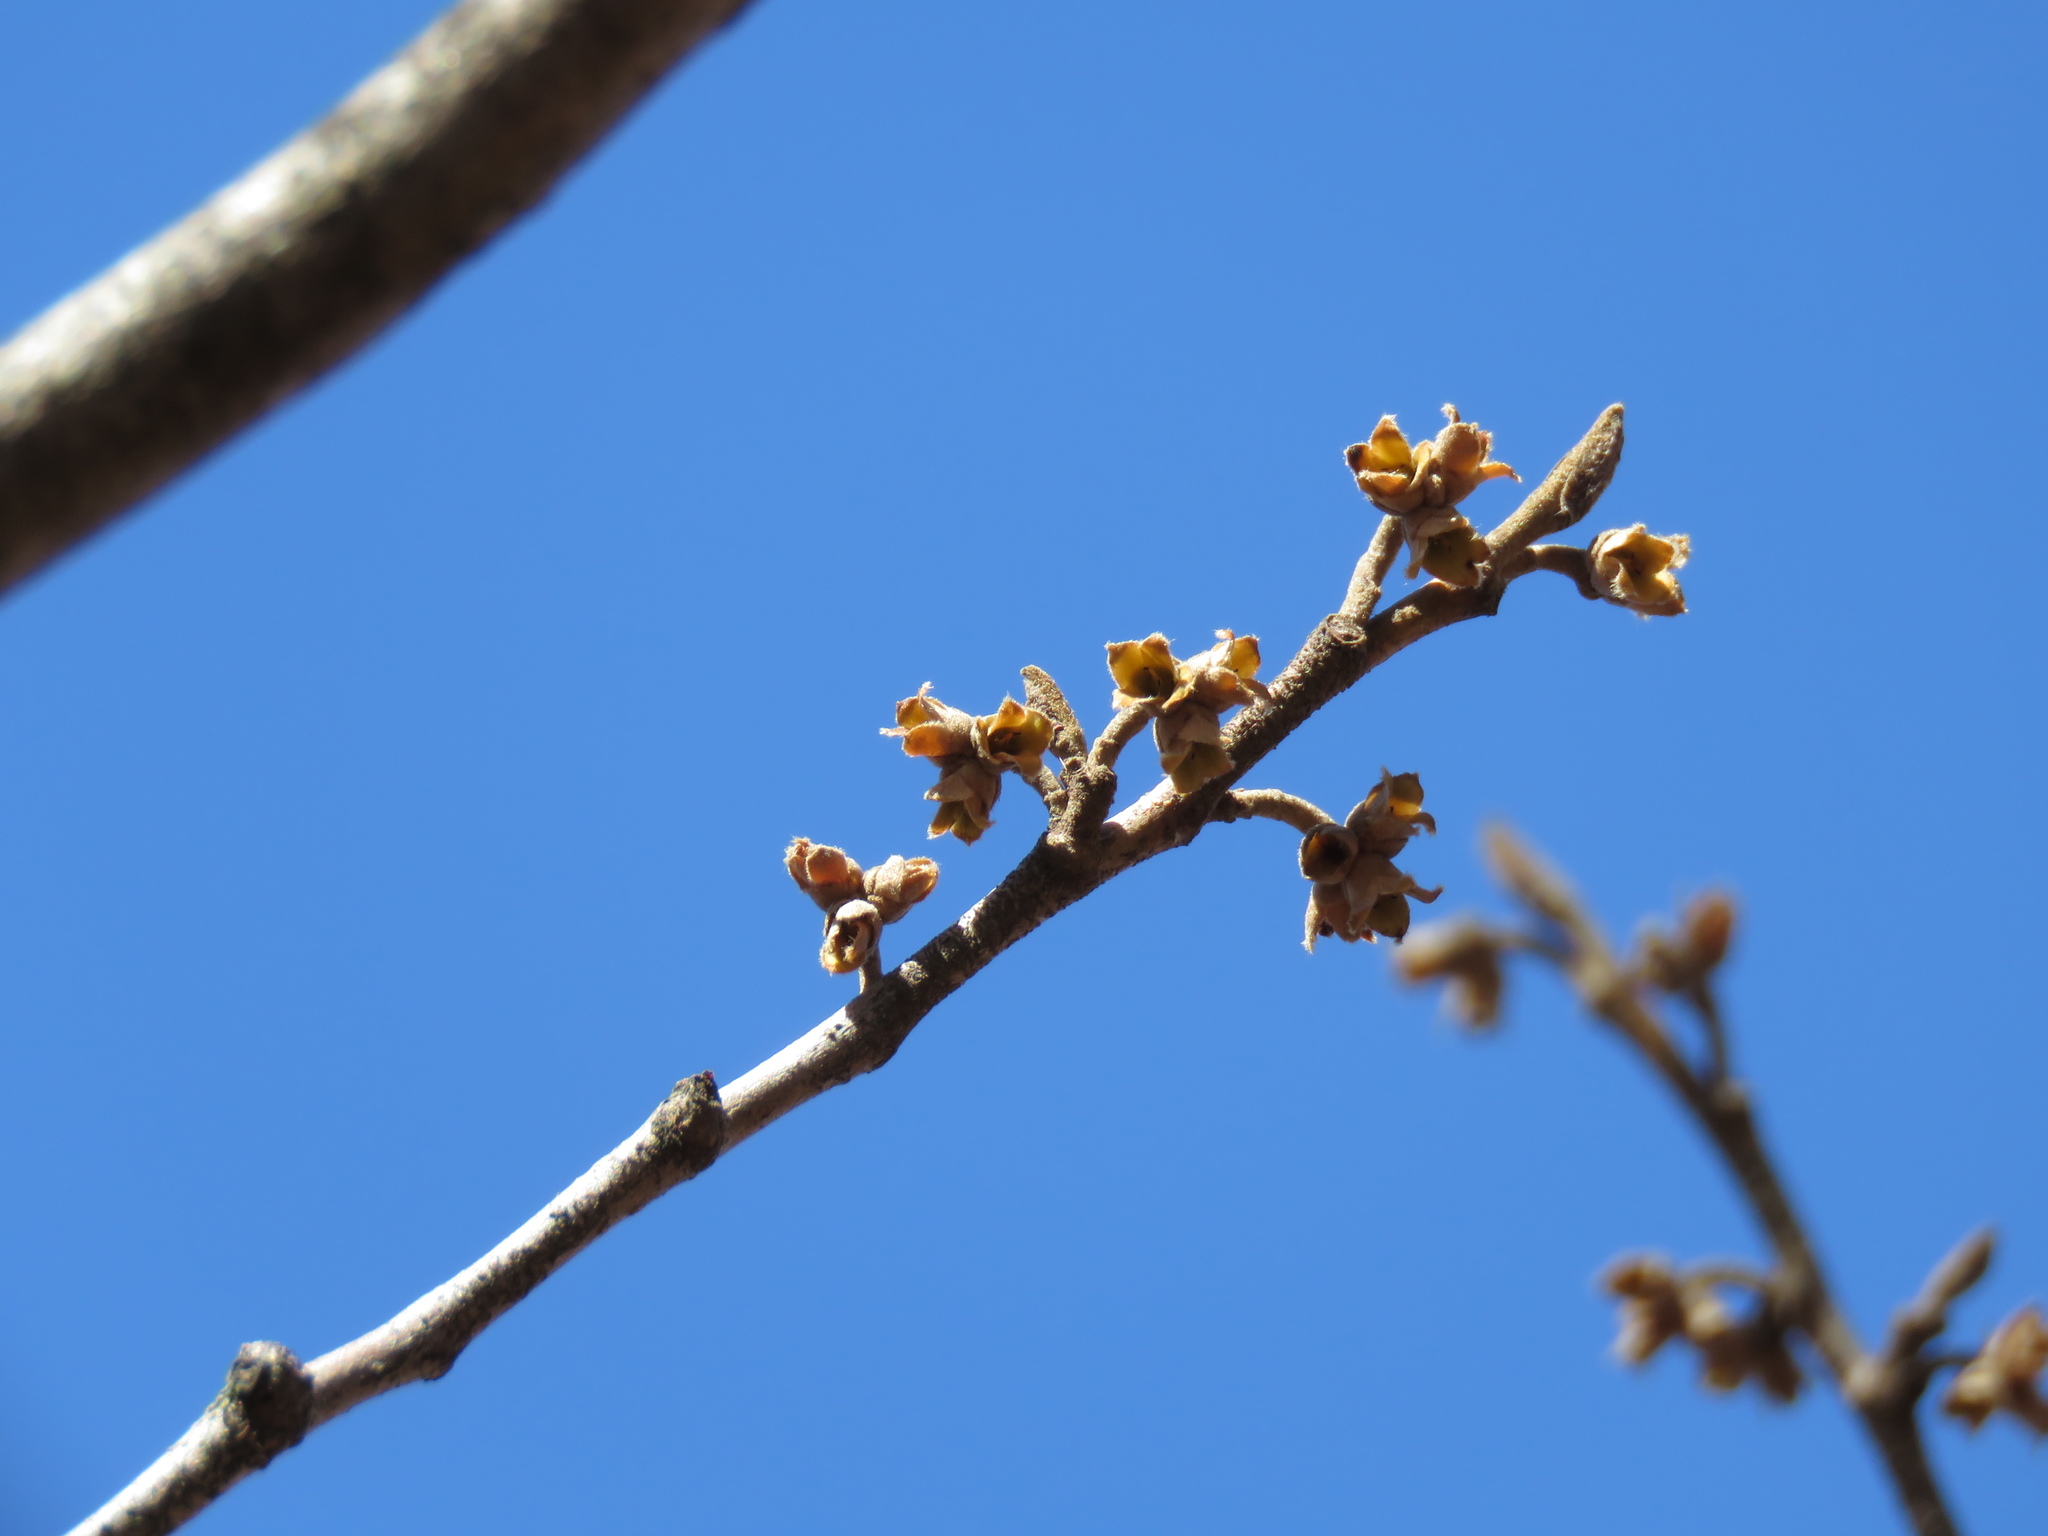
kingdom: Plantae
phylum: Tracheophyta
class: Magnoliopsida
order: Saxifragales
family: Hamamelidaceae
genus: Hamamelis
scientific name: Hamamelis virginiana
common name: Witch-hazel
